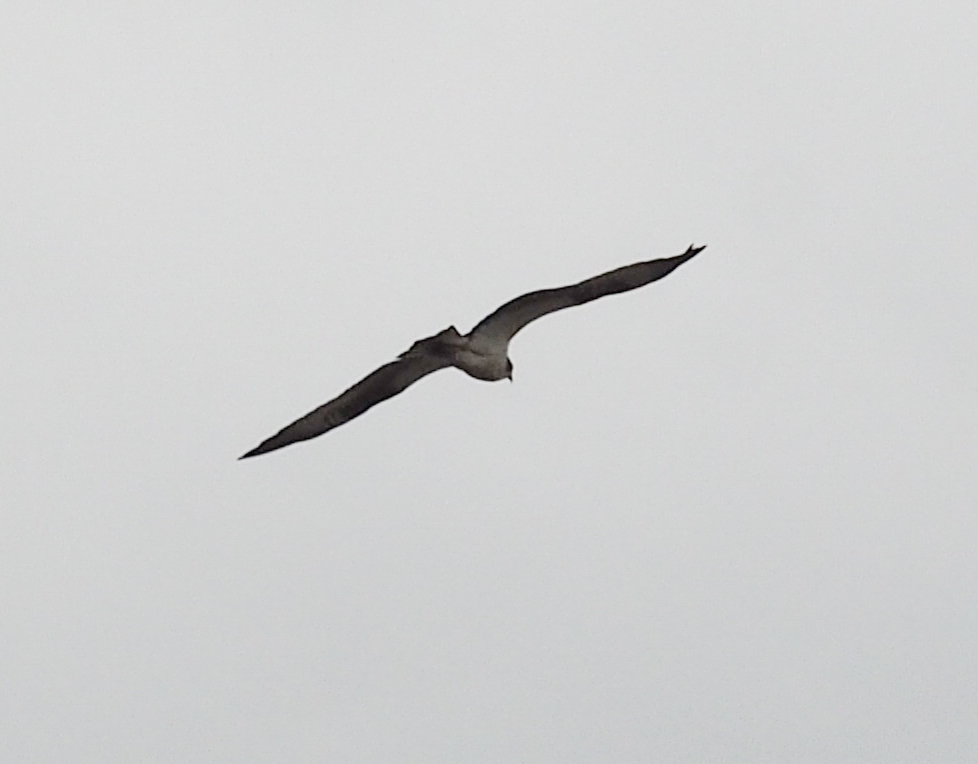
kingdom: Animalia
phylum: Chordata
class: Aves
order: Accipitriformes
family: Pandionidae
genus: Pandion
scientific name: Pandion haliaetus
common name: Osprey
